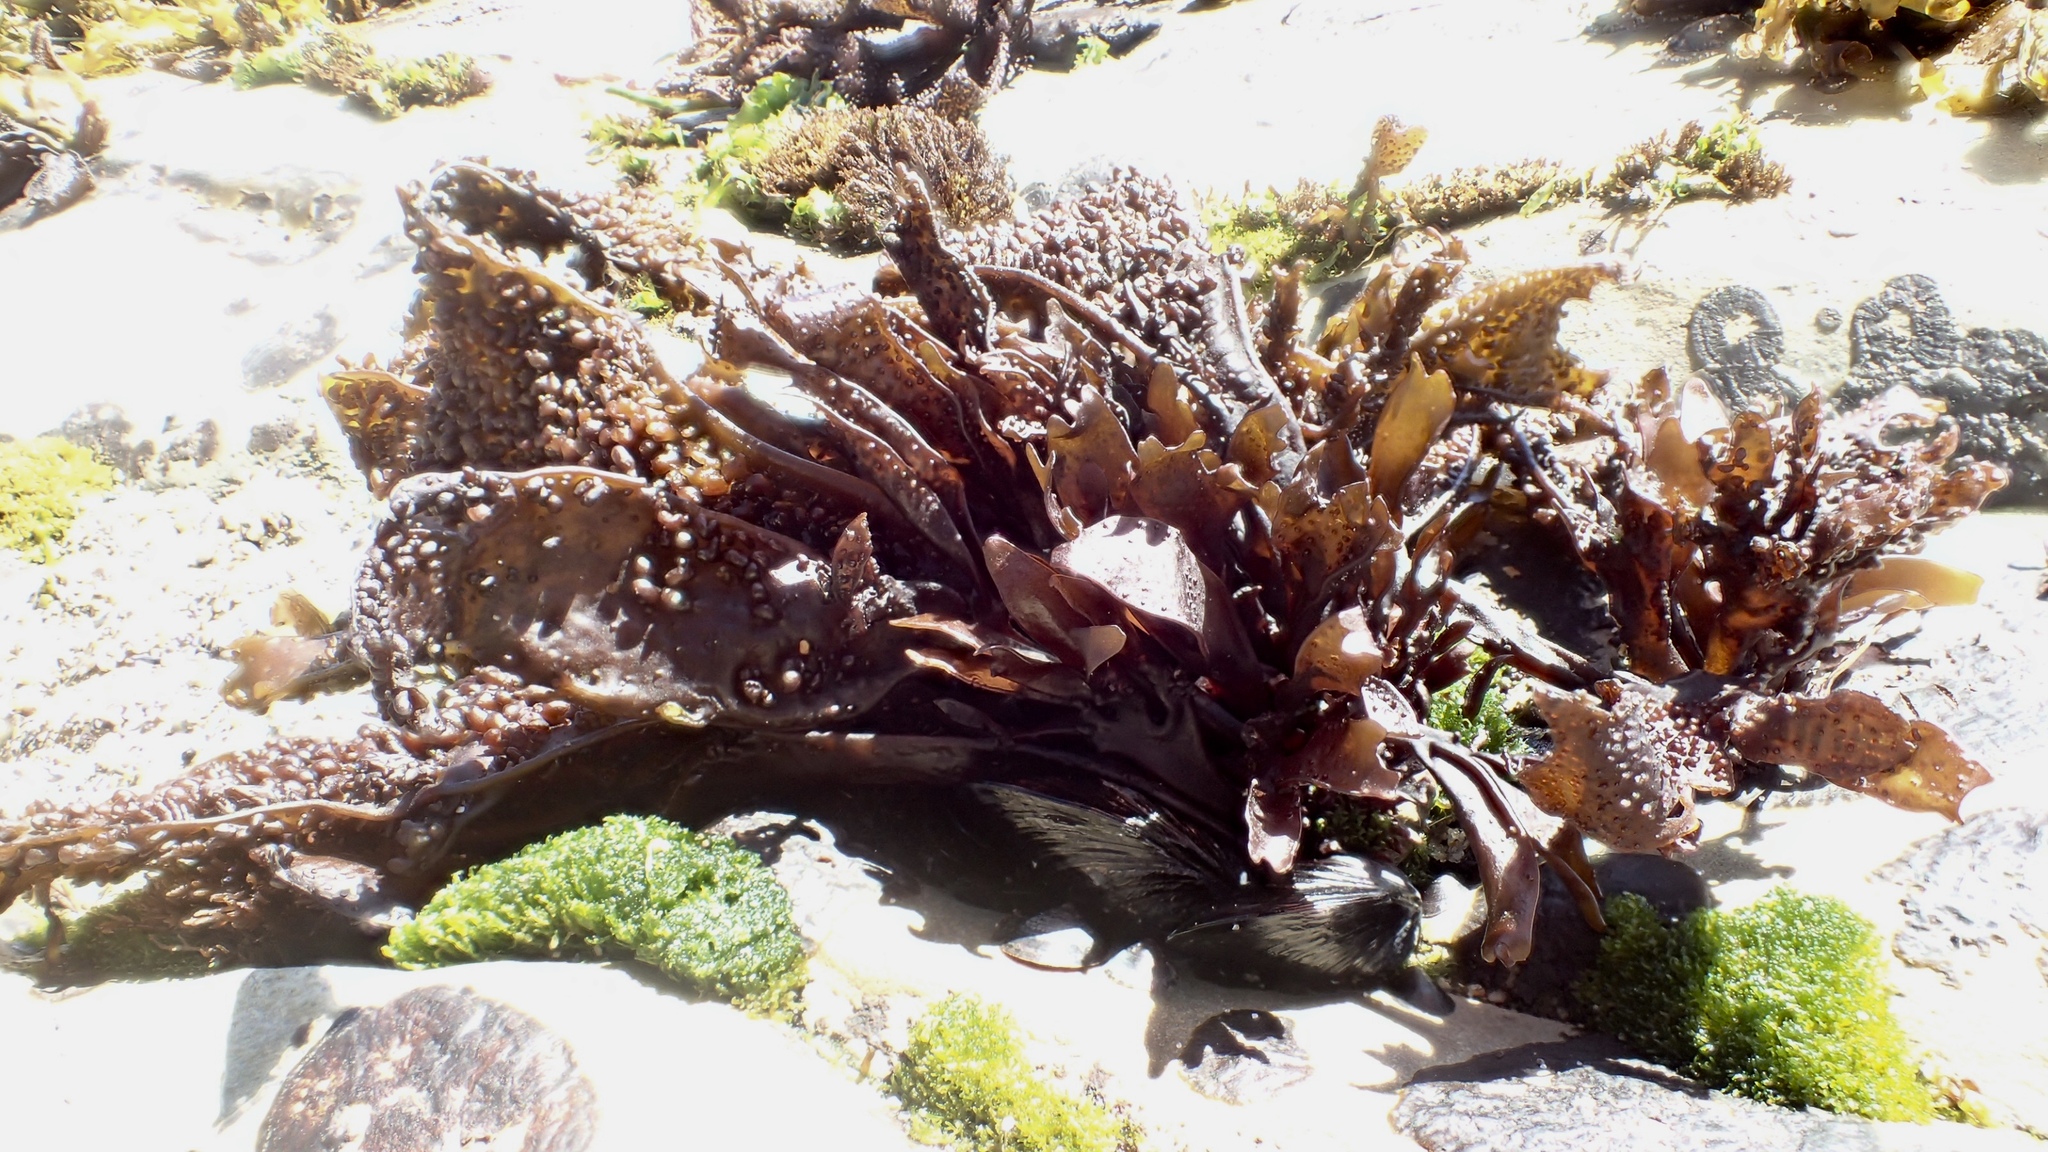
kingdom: Plantae
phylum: Rhodophyta
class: Florideophyceae
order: Gigartinales
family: Phyllophoraceae
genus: Mastocarpus
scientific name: Mastocarpus papillatus
